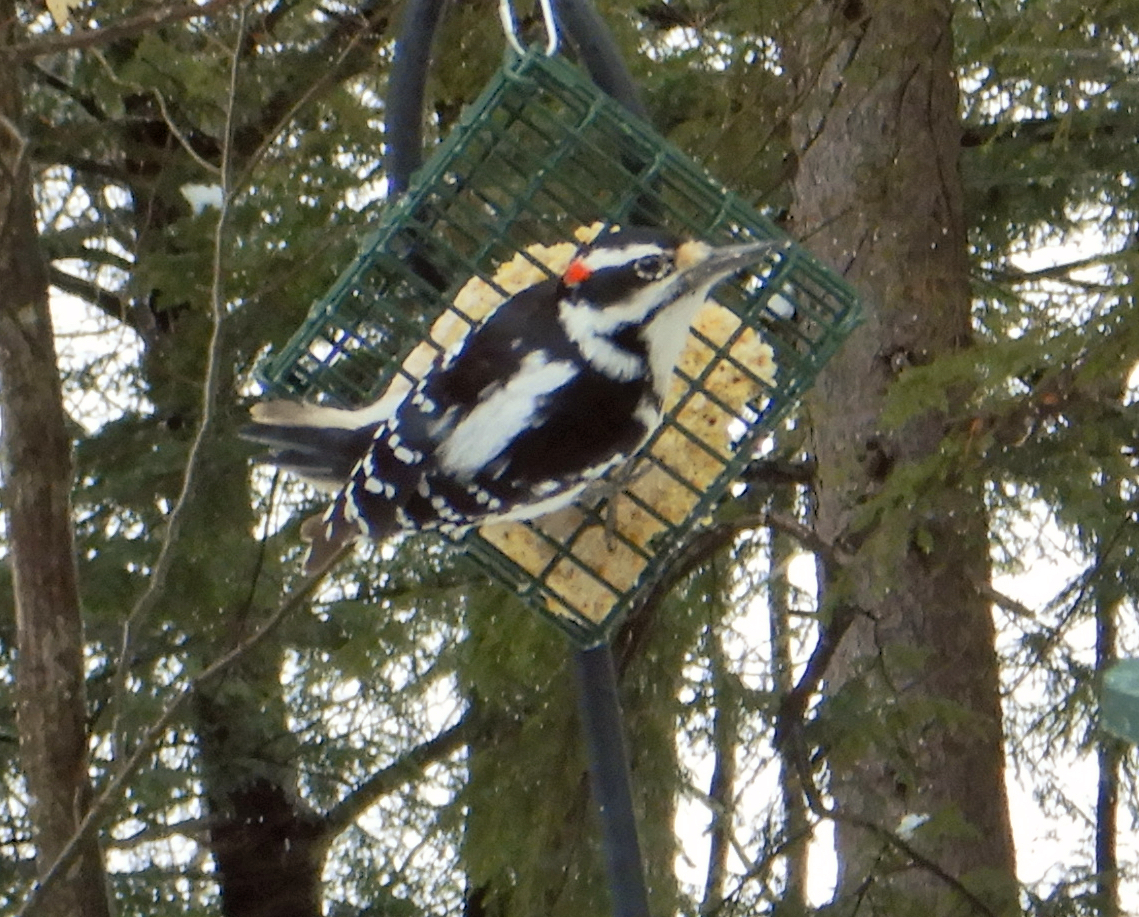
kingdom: Animalia
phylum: Chordata
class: Aves
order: Piciformes
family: Picidae
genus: Leuconotopicus
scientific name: Leuconotopicus villosus
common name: Hairy woodpecker
